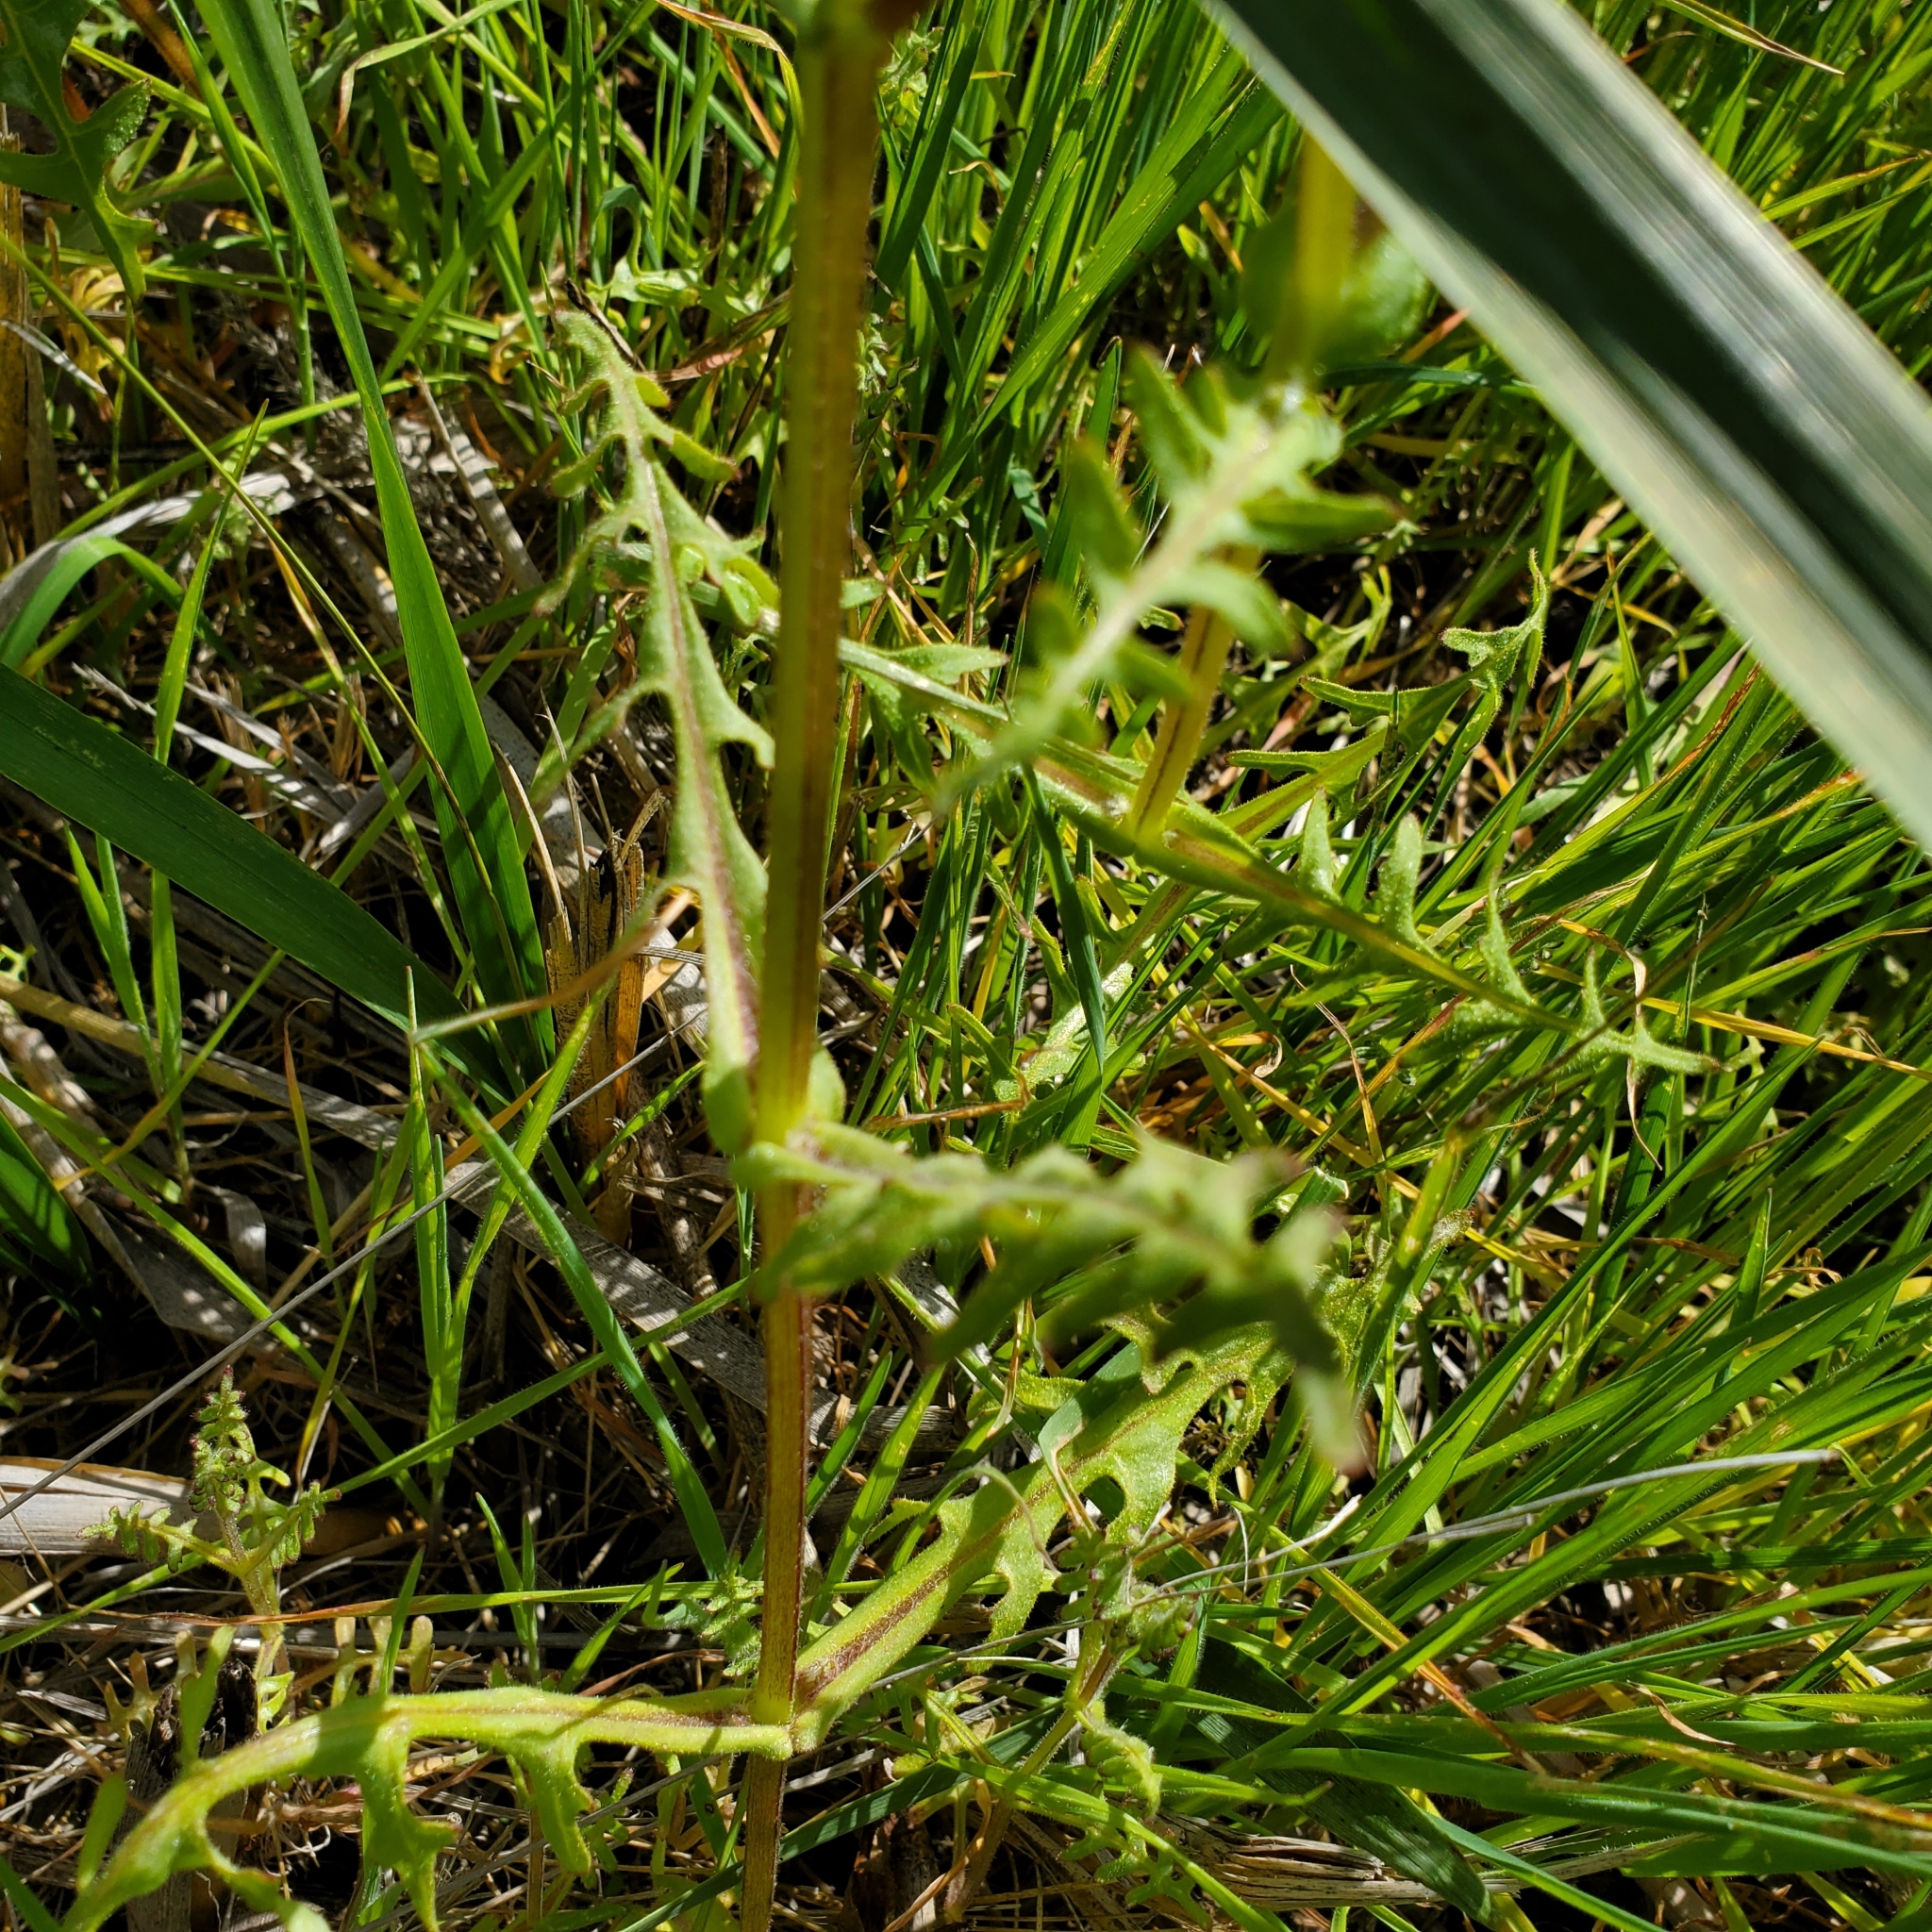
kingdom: Plantae
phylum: Tracheophyta
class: Magnoliopsida
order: Boraginales
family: Hydrophyllaceae
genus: Pholistoma
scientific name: Pholistoma auritum
